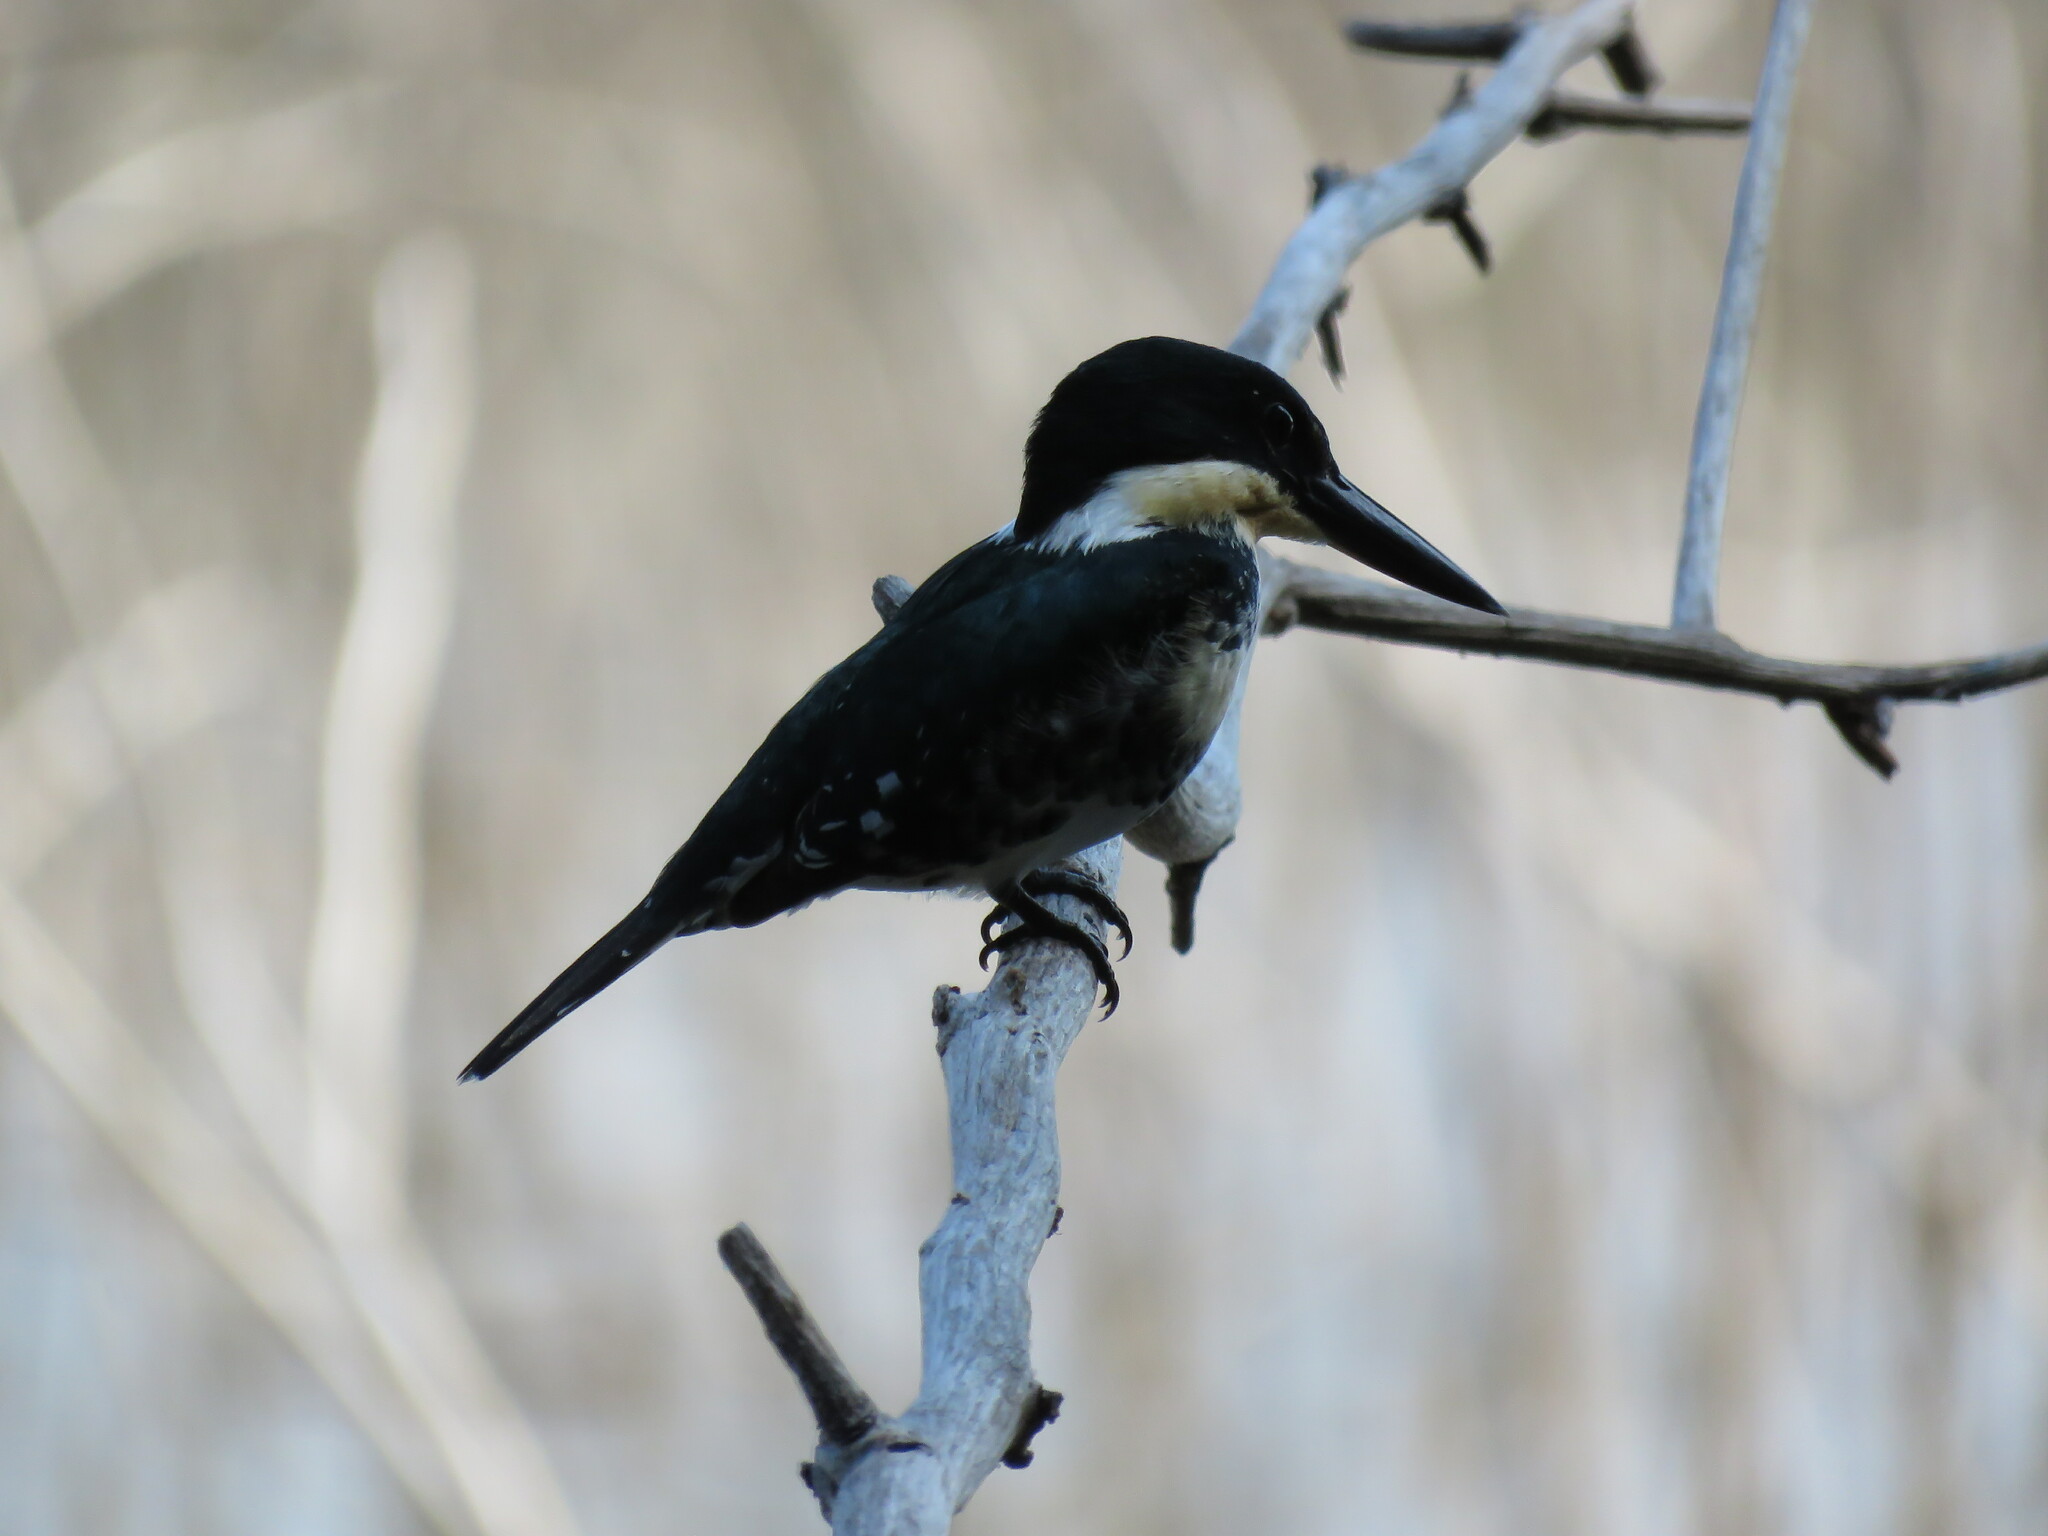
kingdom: Animalia
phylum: Chordata
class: Aves
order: Coraciiformes
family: Alcedinidae
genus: Chloroceryle
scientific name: Chloroceryle americana
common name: Green kingfisher
